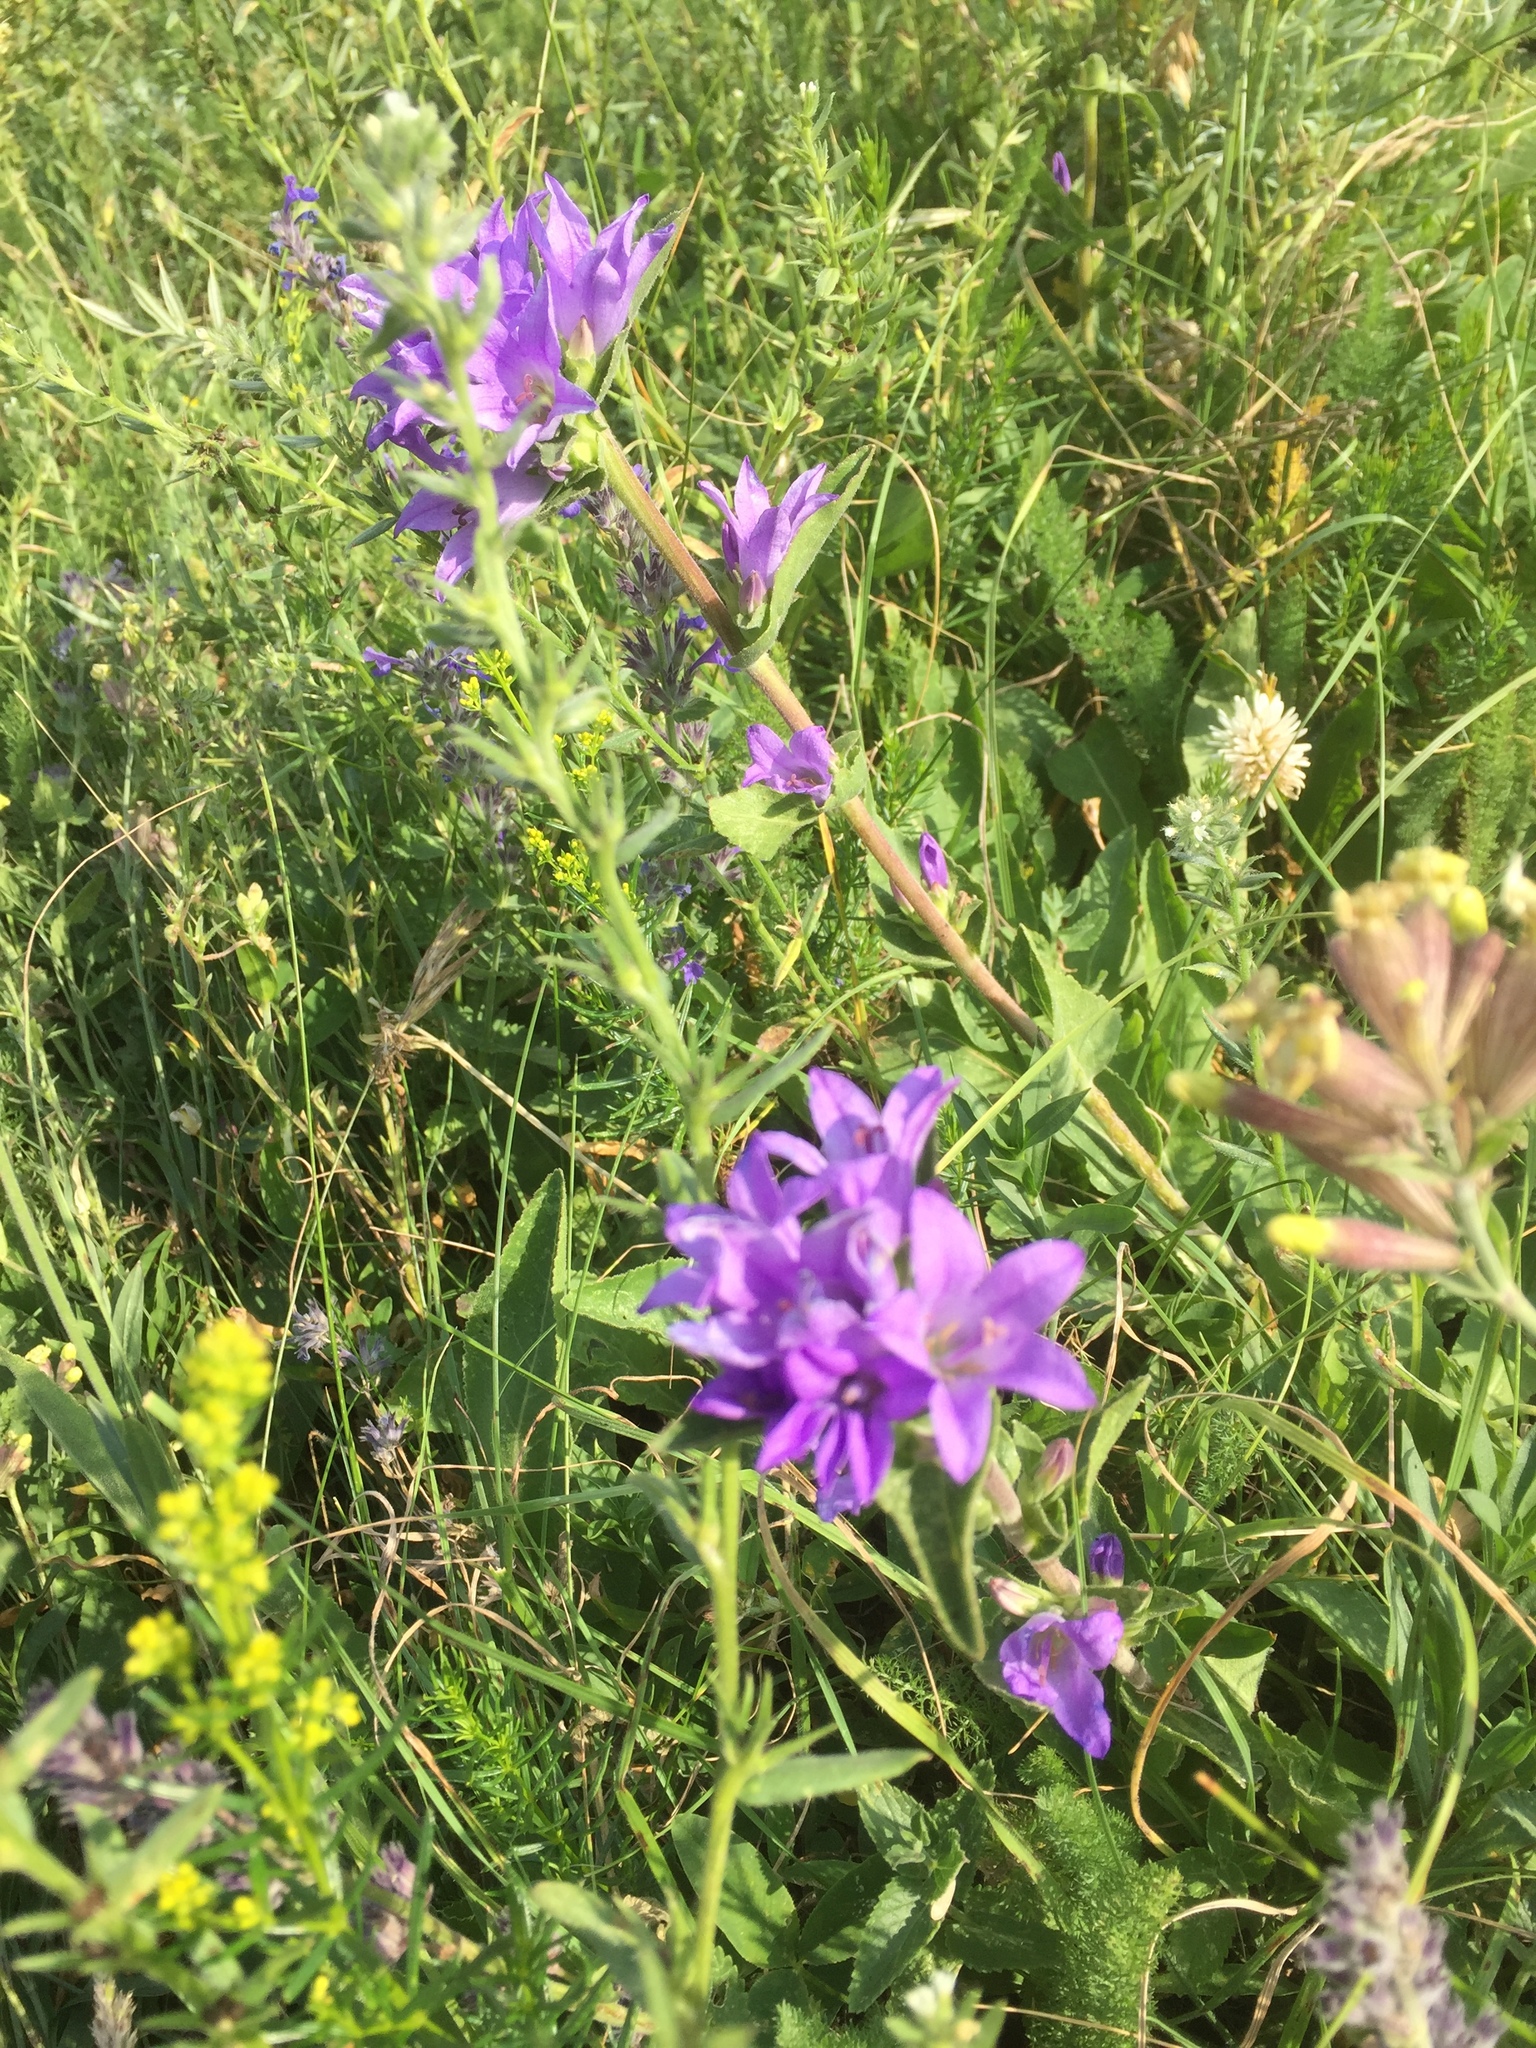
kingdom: Plantae
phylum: Tracheophyta
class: Magnoliopsida
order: Asterales
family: Campanulaceae
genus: Campanula
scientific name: Campanula glomerata
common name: Clustered bellflower
